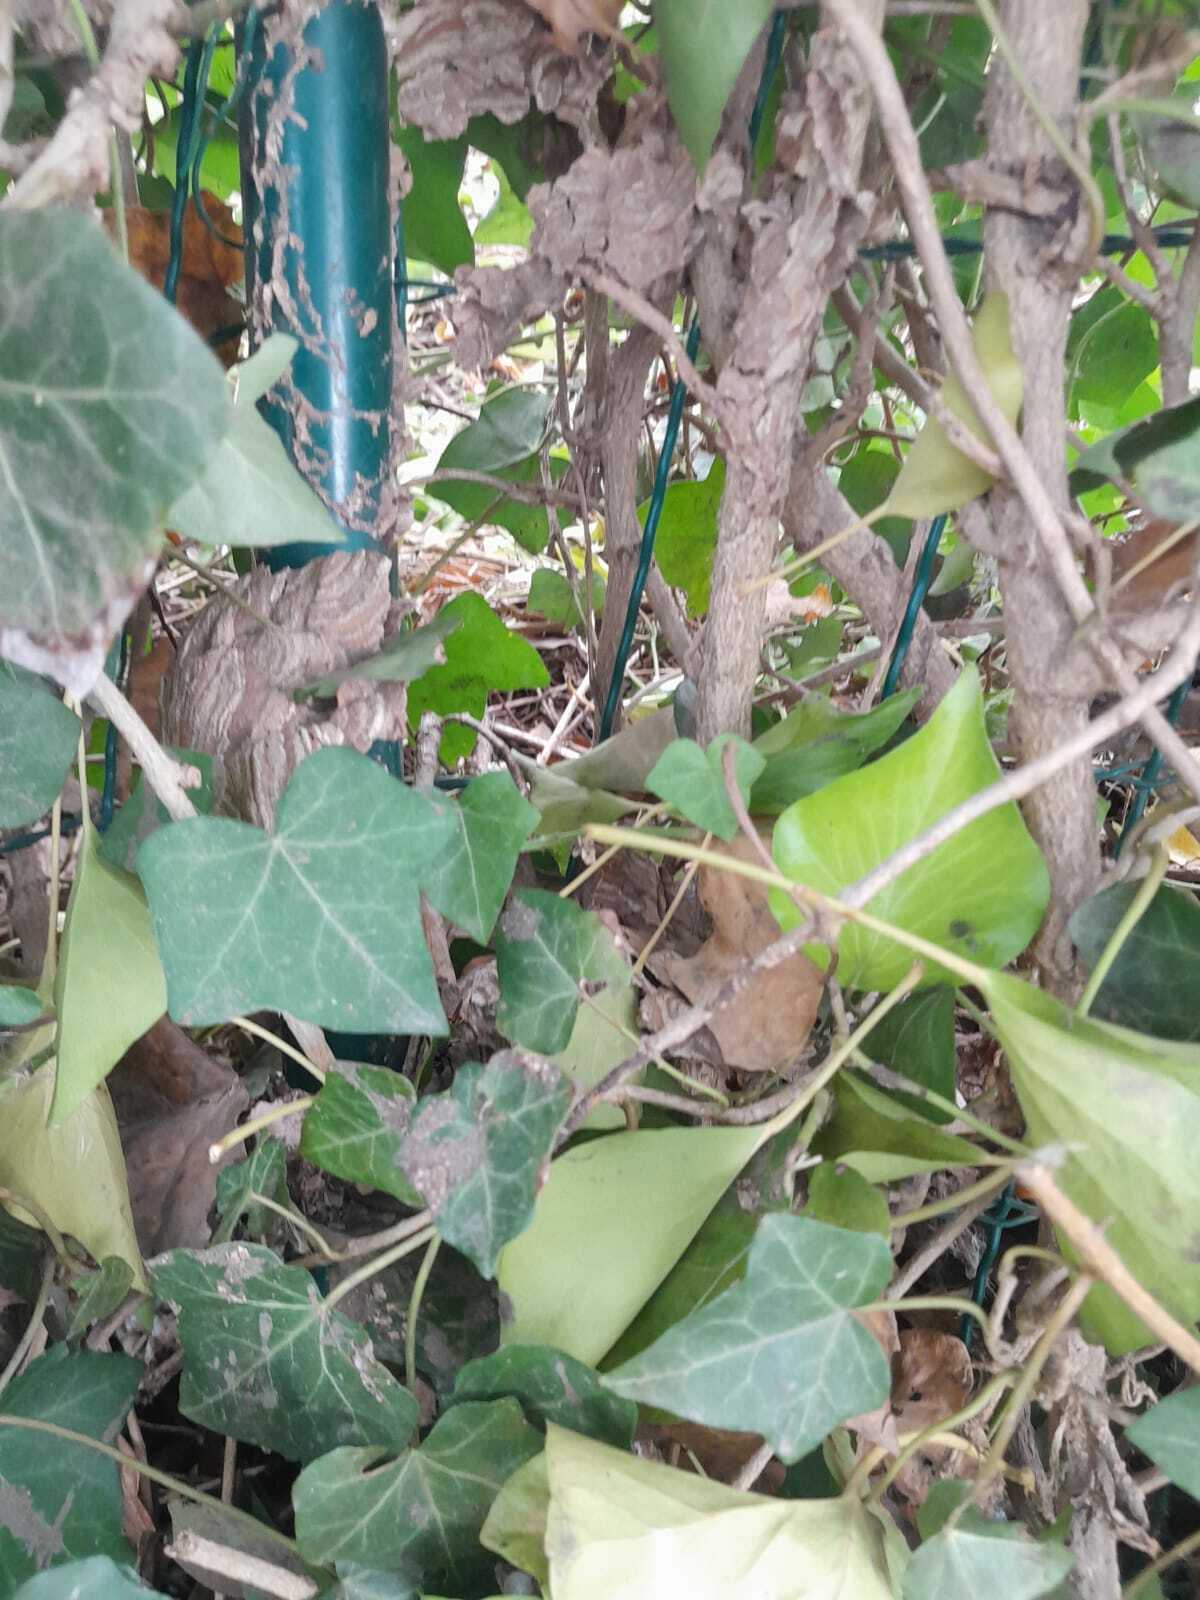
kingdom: Animalia
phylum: Arthropoda
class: Insecta
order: Hymenoptera
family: Vespidae
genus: Vespa
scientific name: Vespa velutina
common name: Asian hornet
